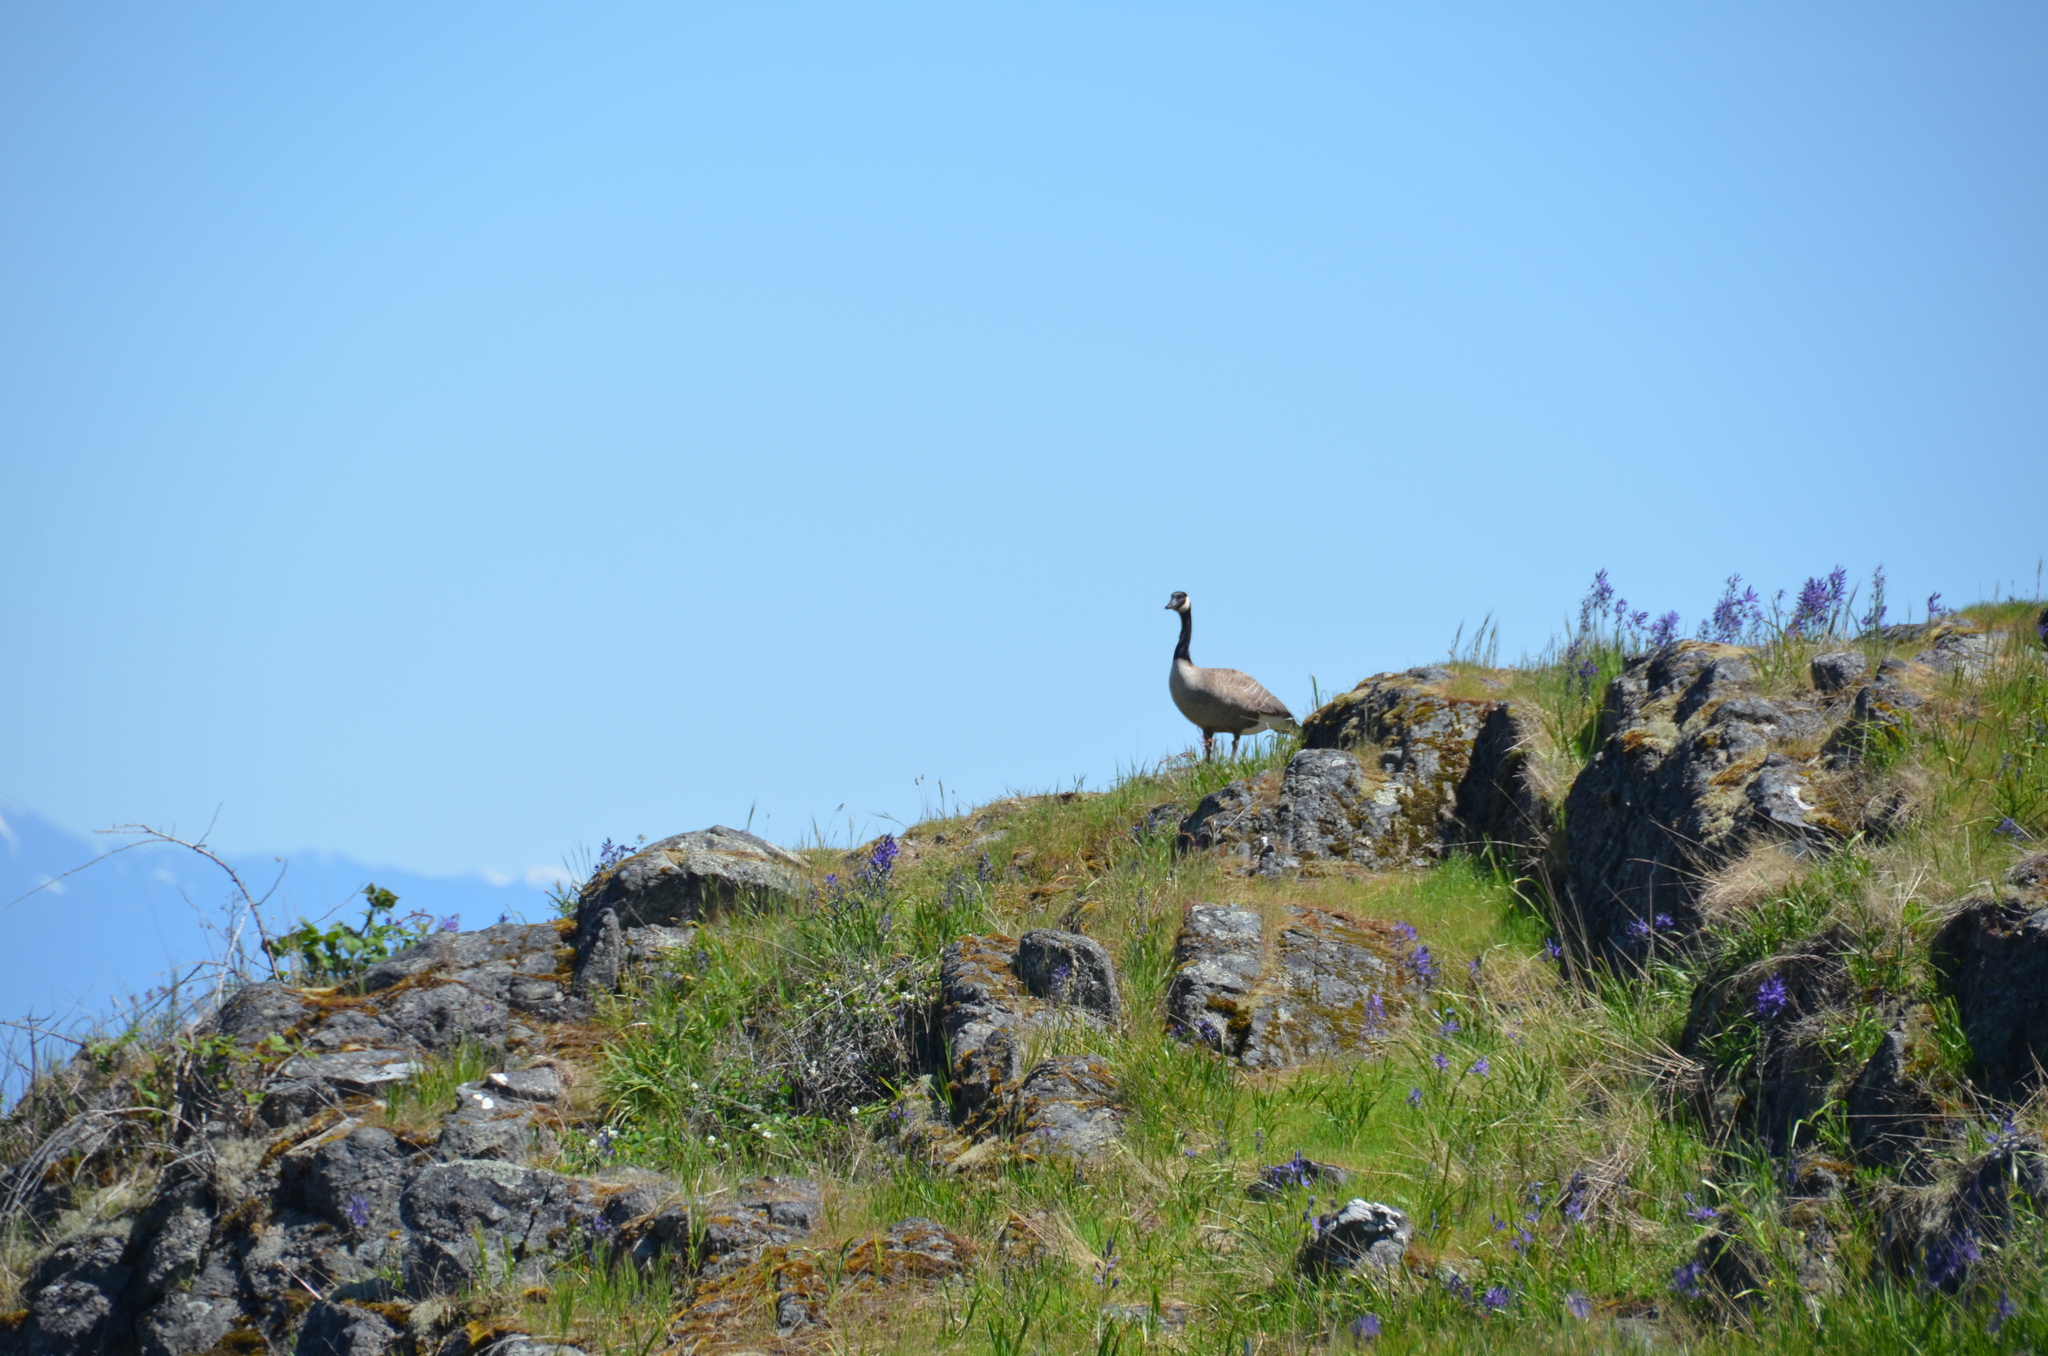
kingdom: Animalia
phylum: Chordata
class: Aves
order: Anseriformes
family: Anatidae
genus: Branta
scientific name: Branta canadensis
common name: Canada goose
